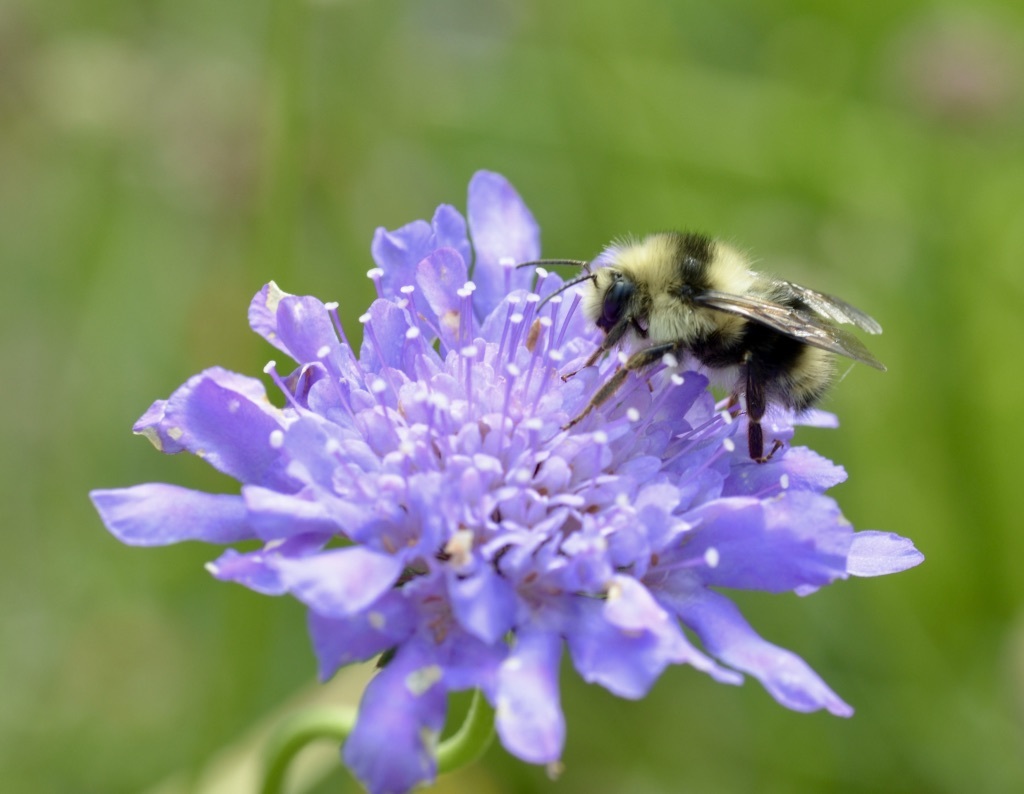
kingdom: Animalia
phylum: Arthropoda
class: Insecta
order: Hymenoptera
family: Apidae
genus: Bombus
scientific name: Bombus melanopygus
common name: Black tail bumble bee
